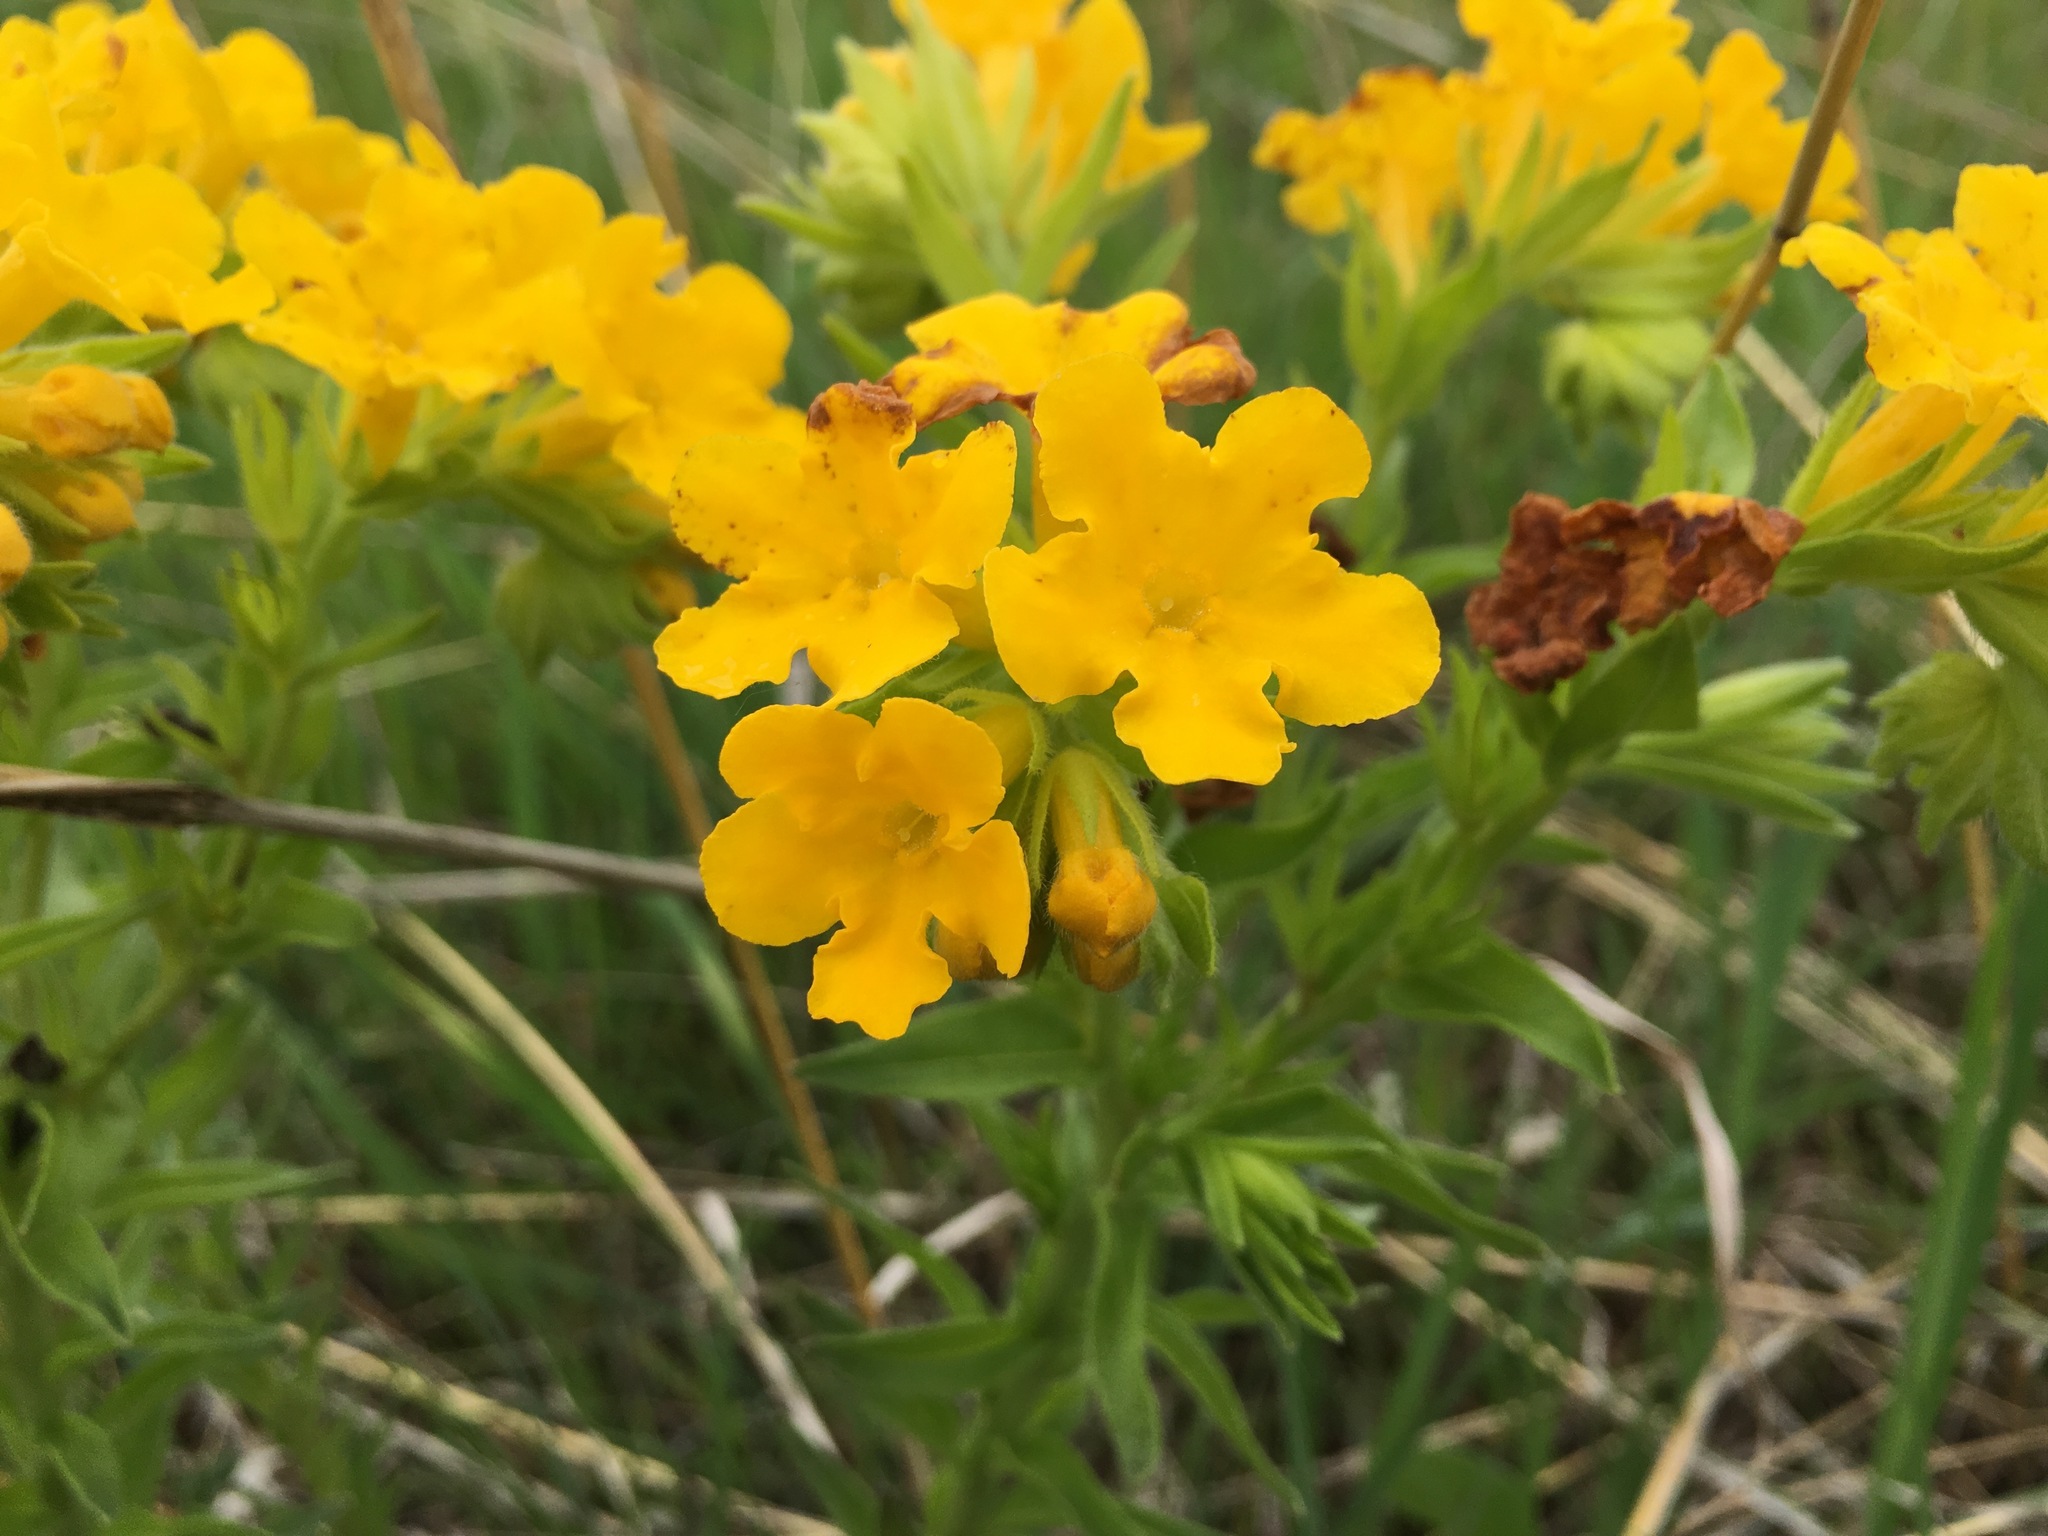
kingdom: Plantae
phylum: Tracheophyta
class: Magnoliopsida
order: Boraginales
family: Boraginaceae
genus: Lithospermum
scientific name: Lithospermum caroliniense
